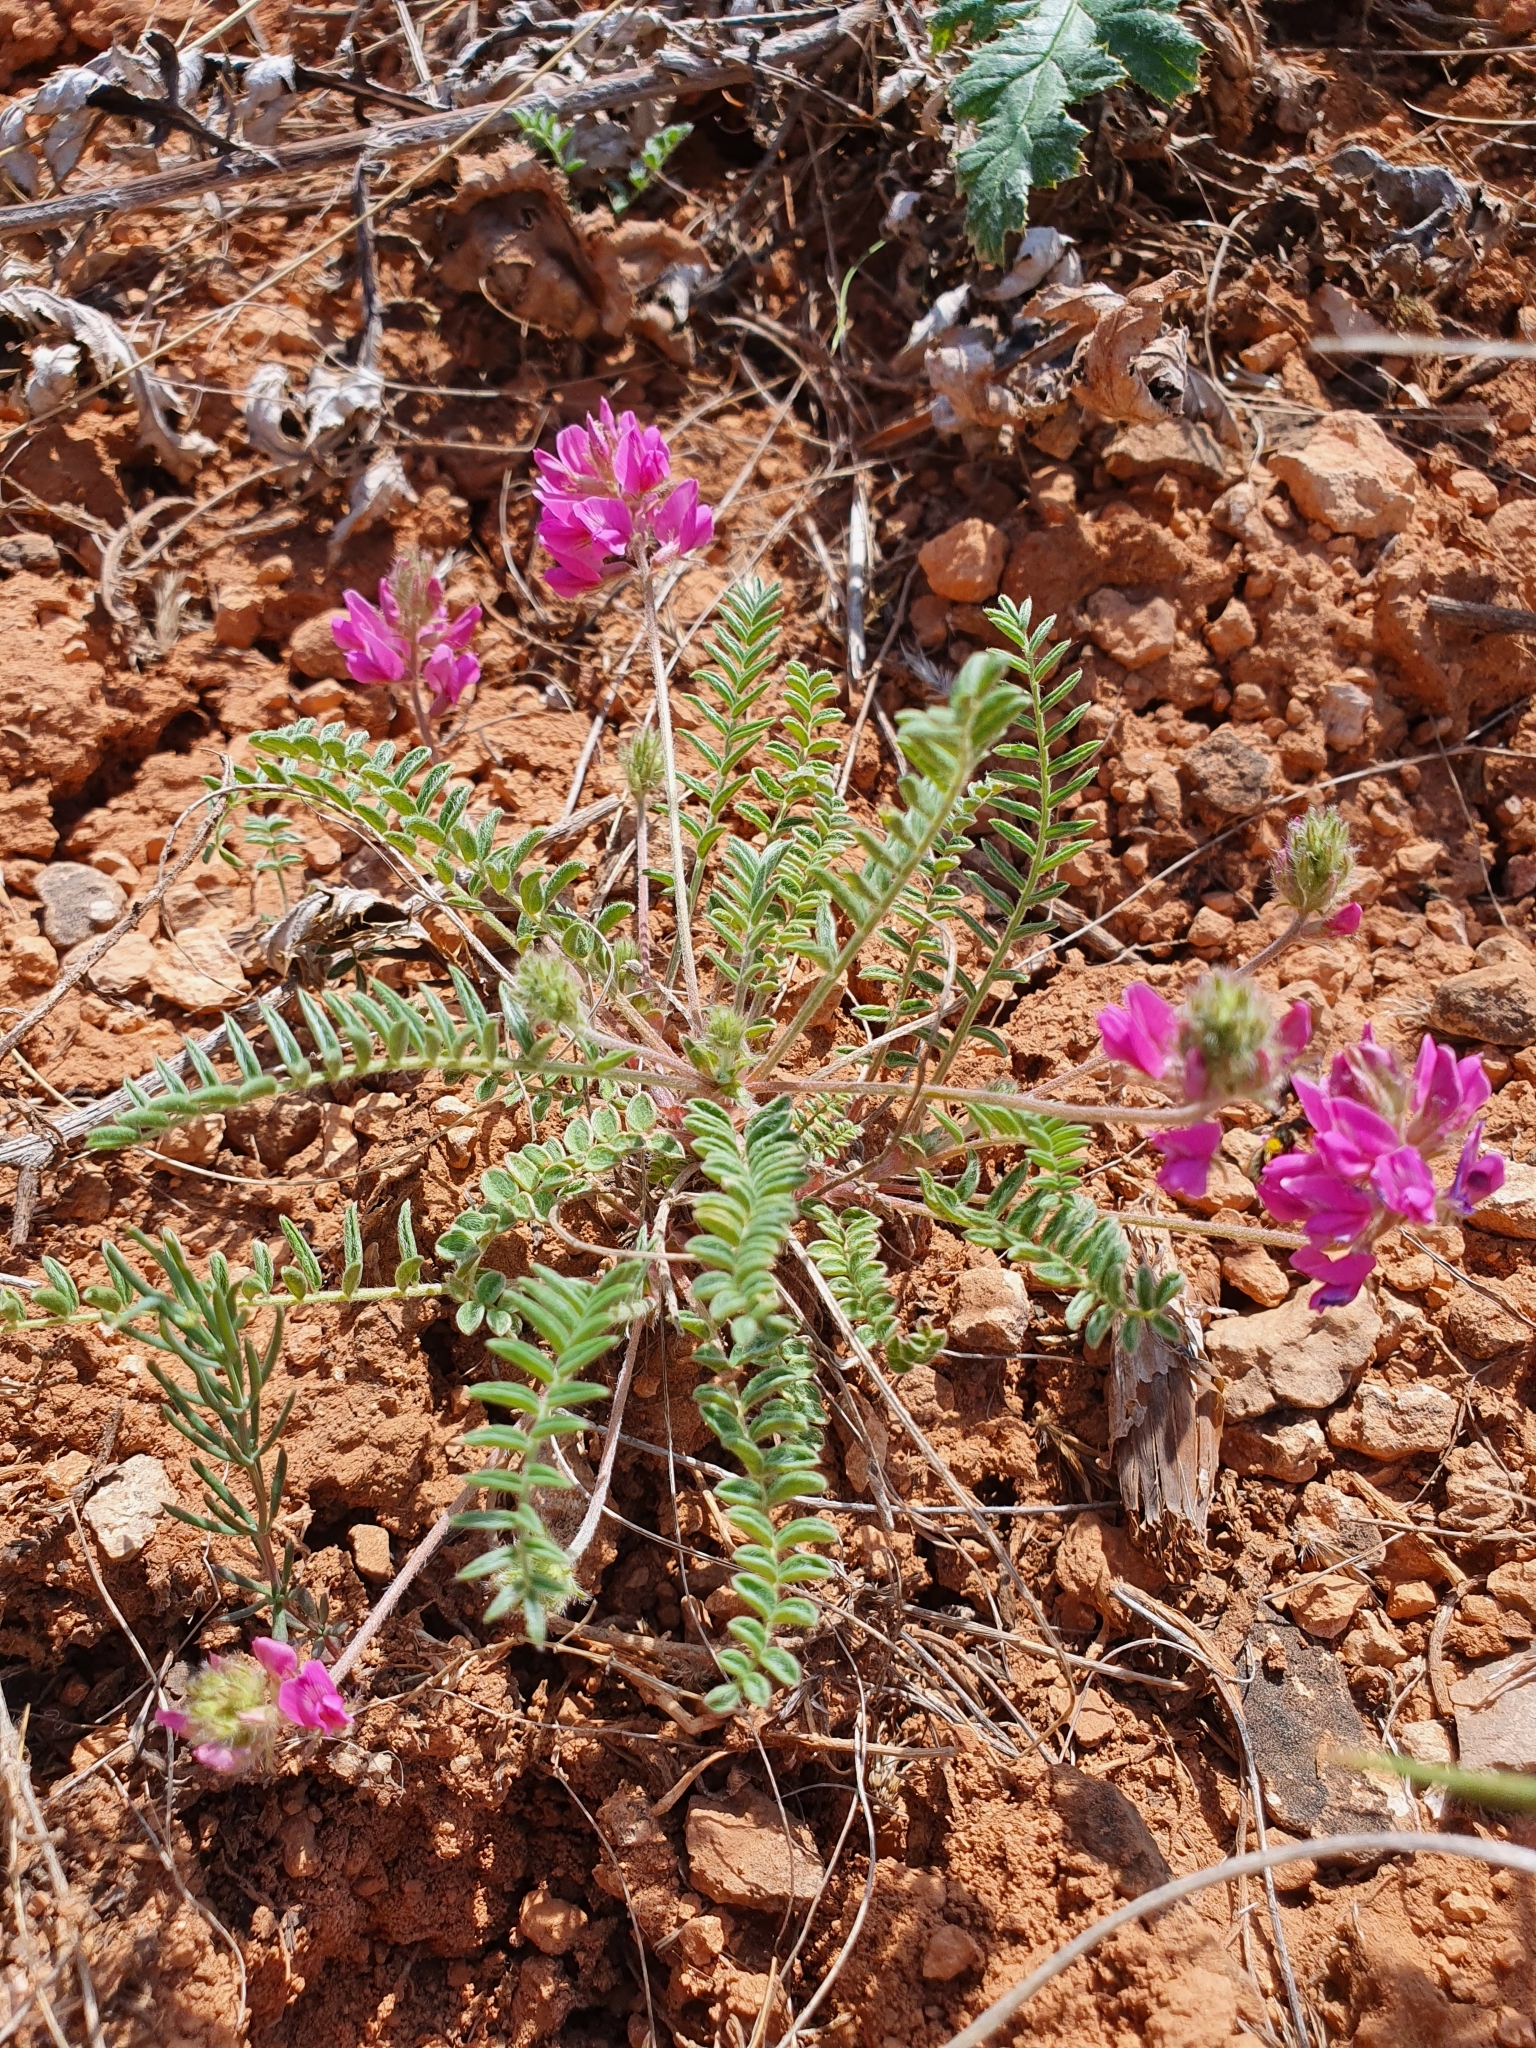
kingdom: Plantae
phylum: Tracheophyta
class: Magnoliopsida
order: Fabales
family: Fabaceae
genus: Oxytropis
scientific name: Oxytropis floribunda
